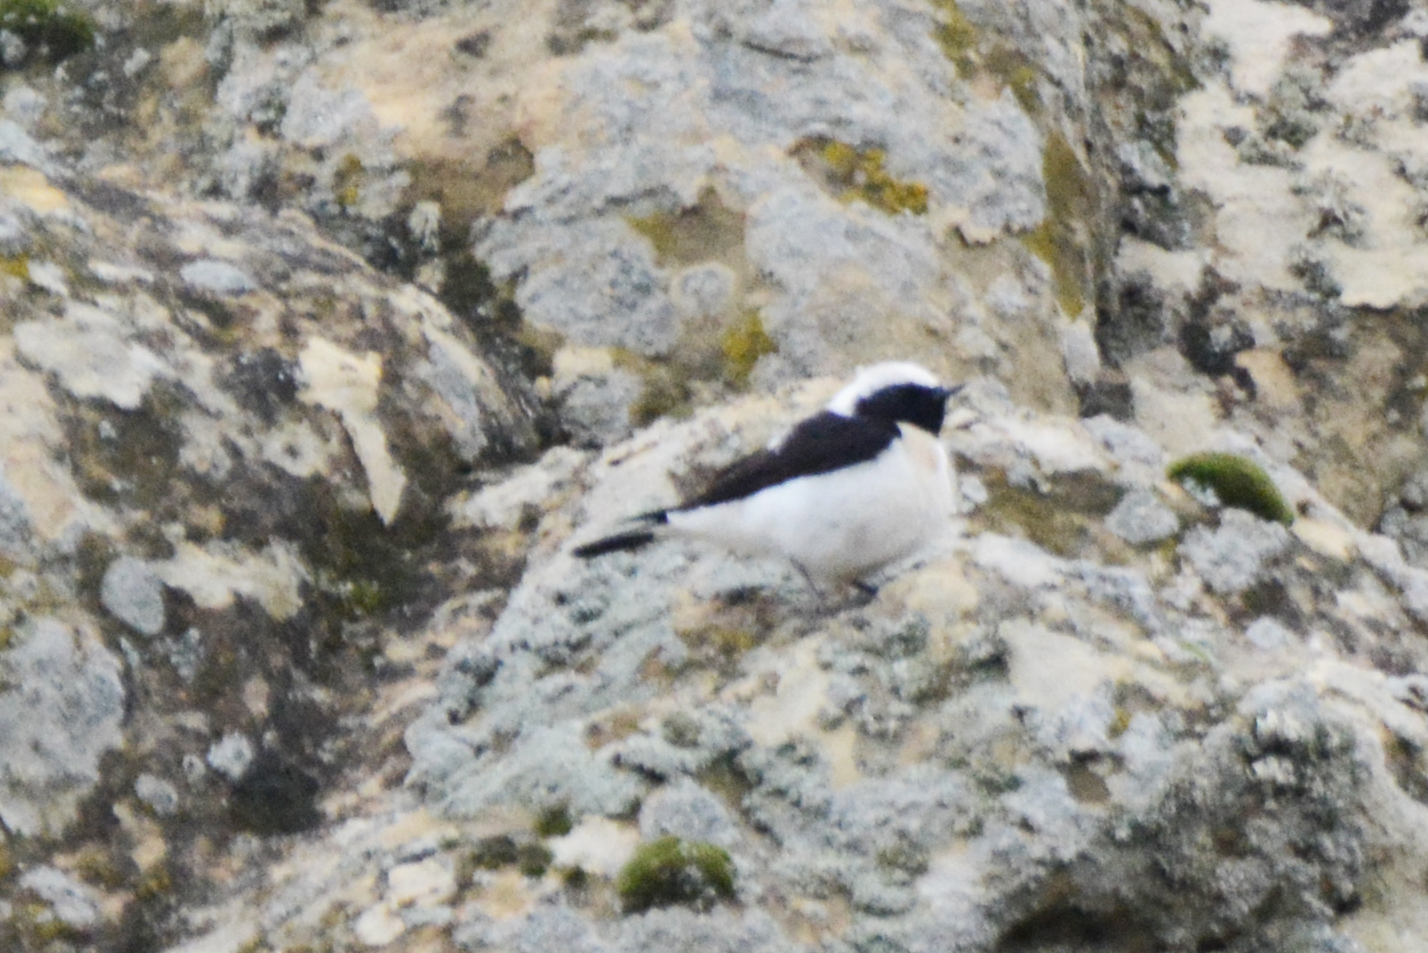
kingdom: Animalia
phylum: Chordata
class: Aves
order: Passeriformes
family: Muscicapidae
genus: Oenanthe
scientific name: Oenanthe hispanica
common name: Black-eared wheatear
